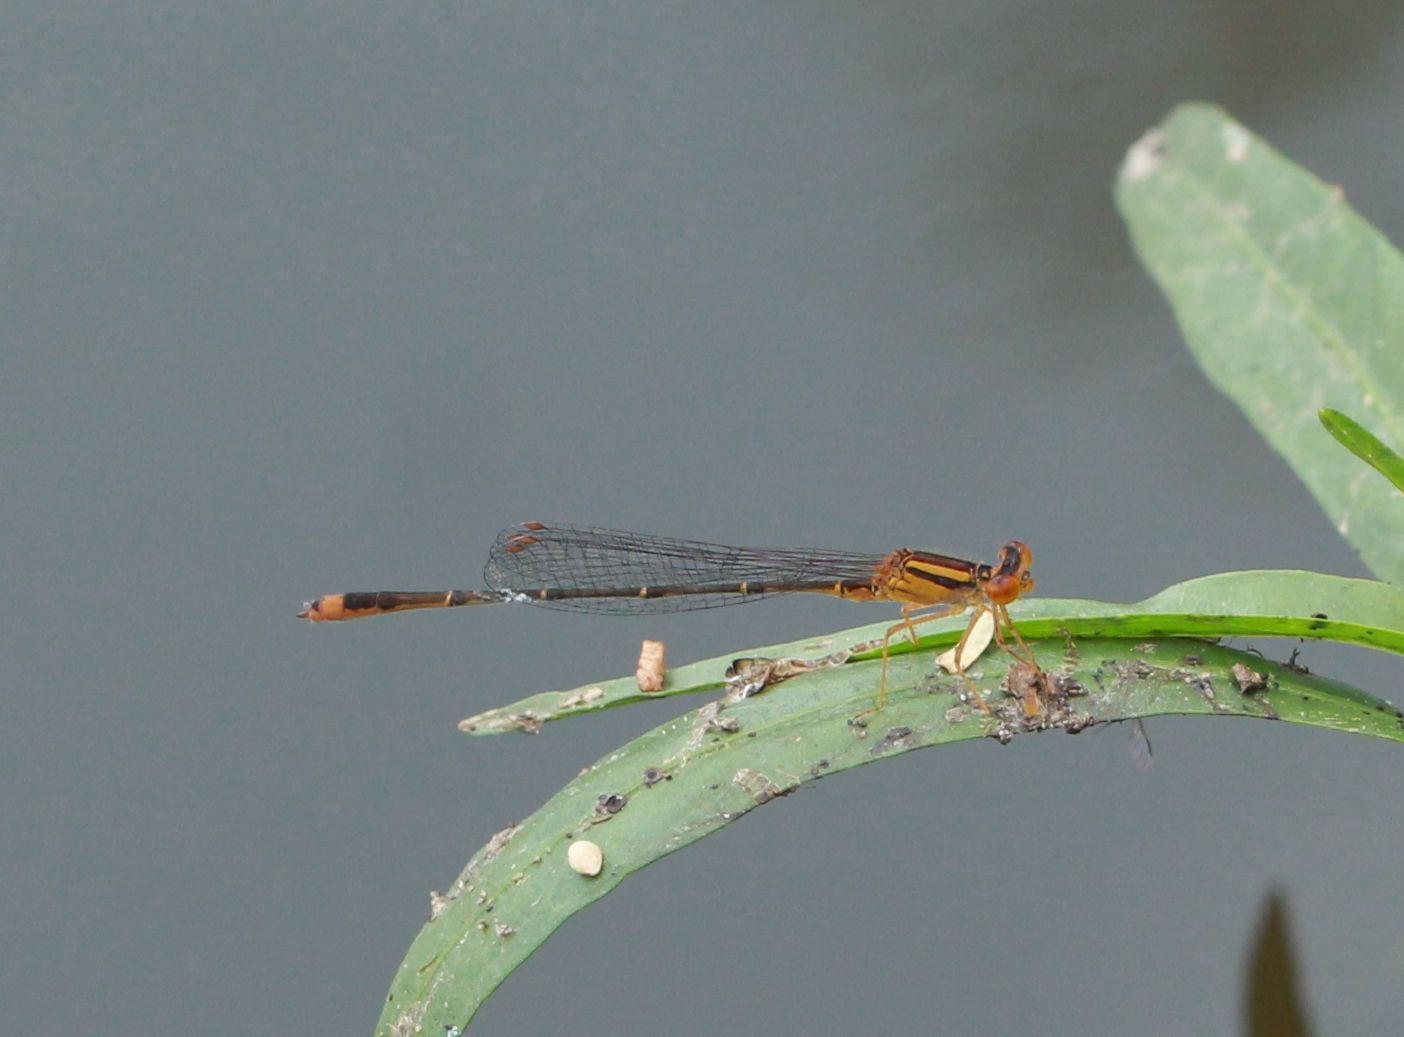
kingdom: Animalia
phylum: Arthropoda
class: Insecta
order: Odonata
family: Coenagrionidae
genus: Enallagma
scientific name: Enallagma signatum
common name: Orange bluet
